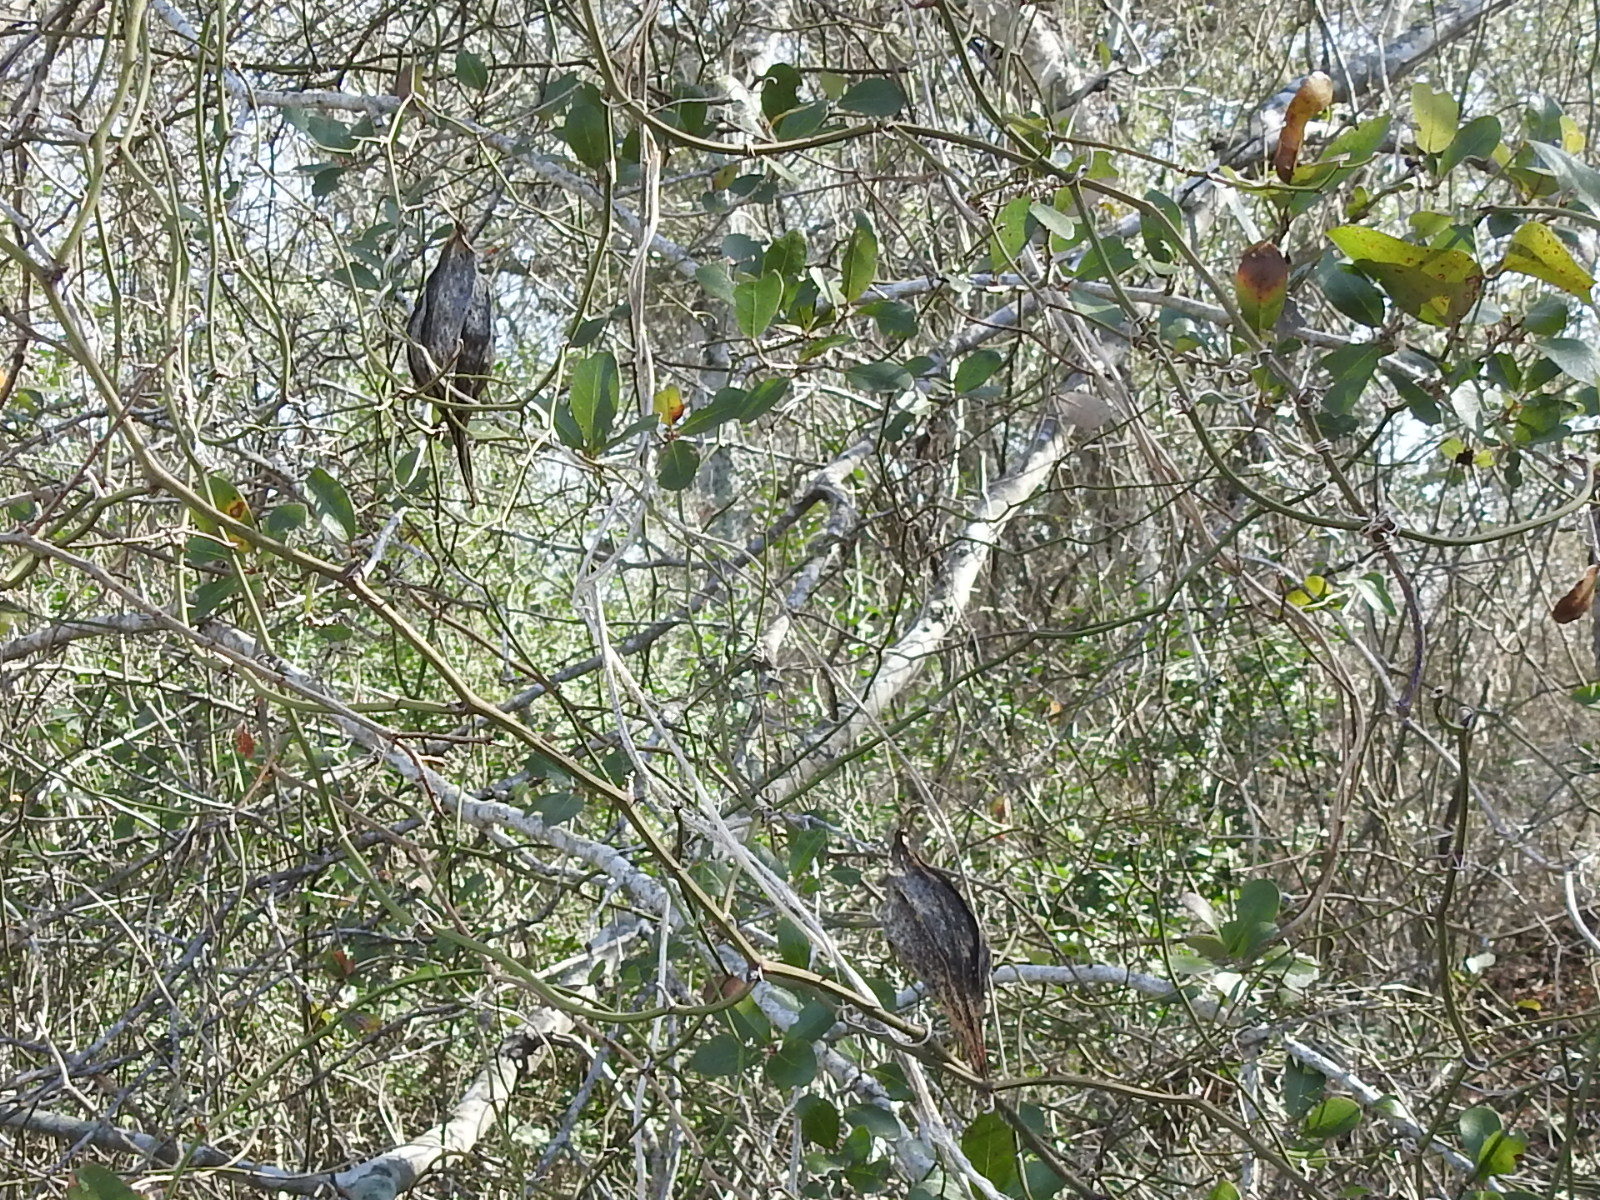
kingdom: Plantae
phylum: Tracheophyta
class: Magnoliopsida
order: Gentianales
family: Apocynaceae
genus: Gonolobus
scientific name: Gonolobus suberosus
